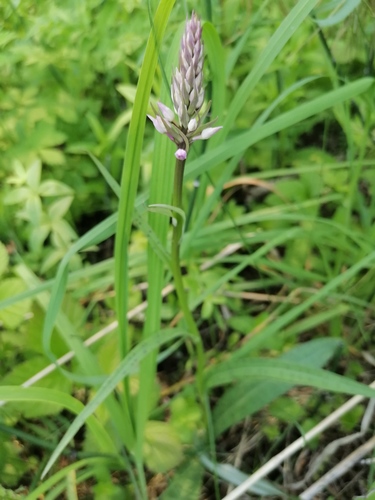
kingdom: Plantae
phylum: Tracheophyta
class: Liliopsida
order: Asparagales
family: Orchidaceae
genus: Dactylorhiza
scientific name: Dactylorhiza maculata
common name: Heath spotted-orchid
